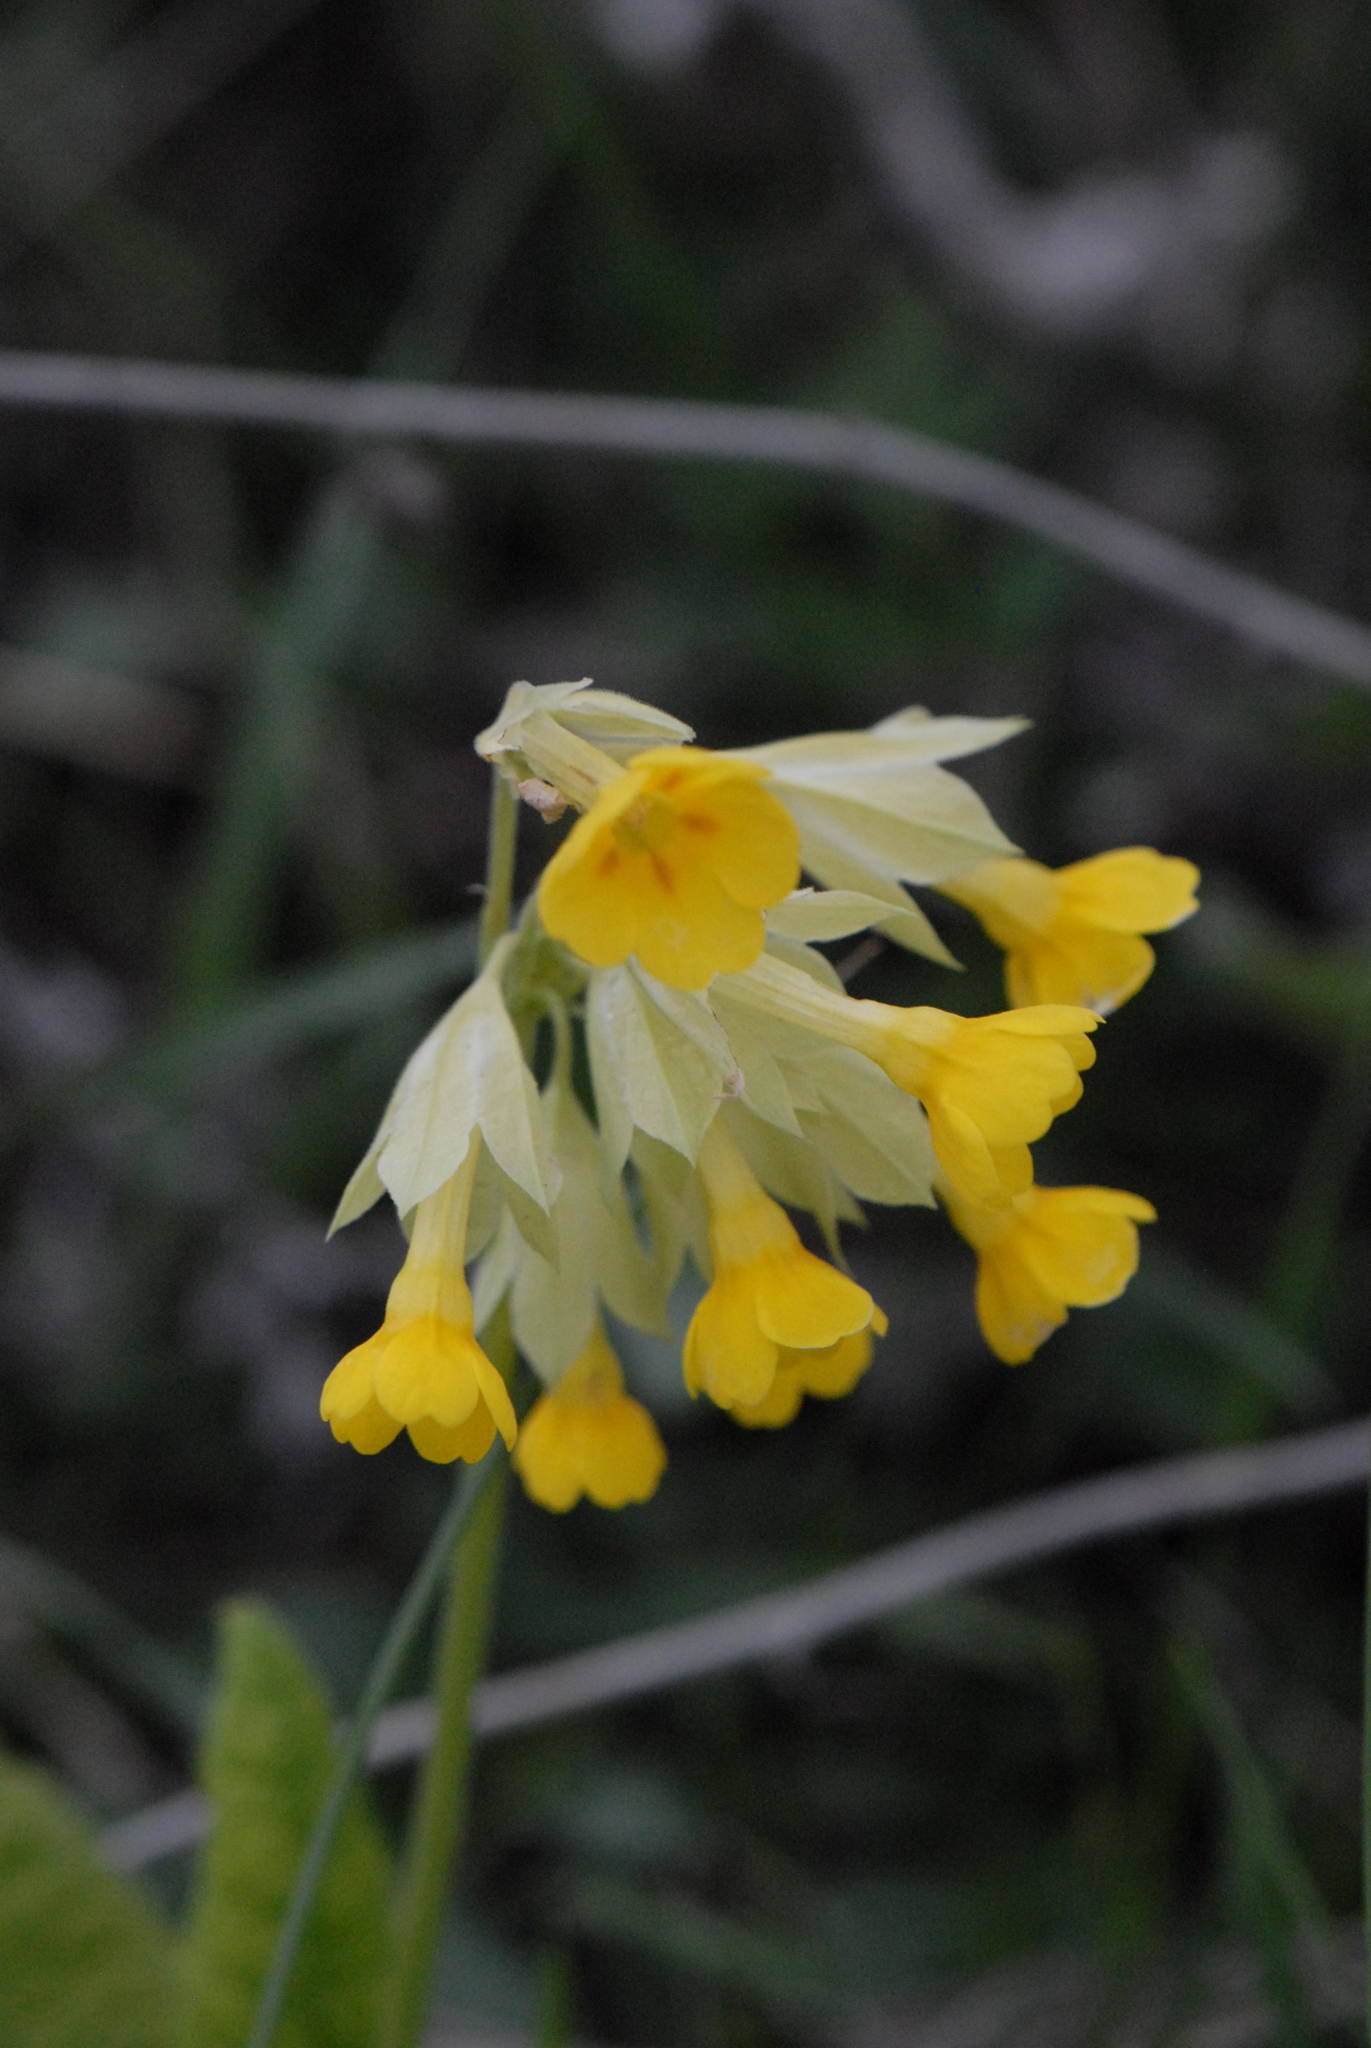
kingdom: Plantae
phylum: Tracheophyta
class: Magnoliopsida
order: Ericales
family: Primulaceae
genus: Primula
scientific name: Primula veris
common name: Cowslip
